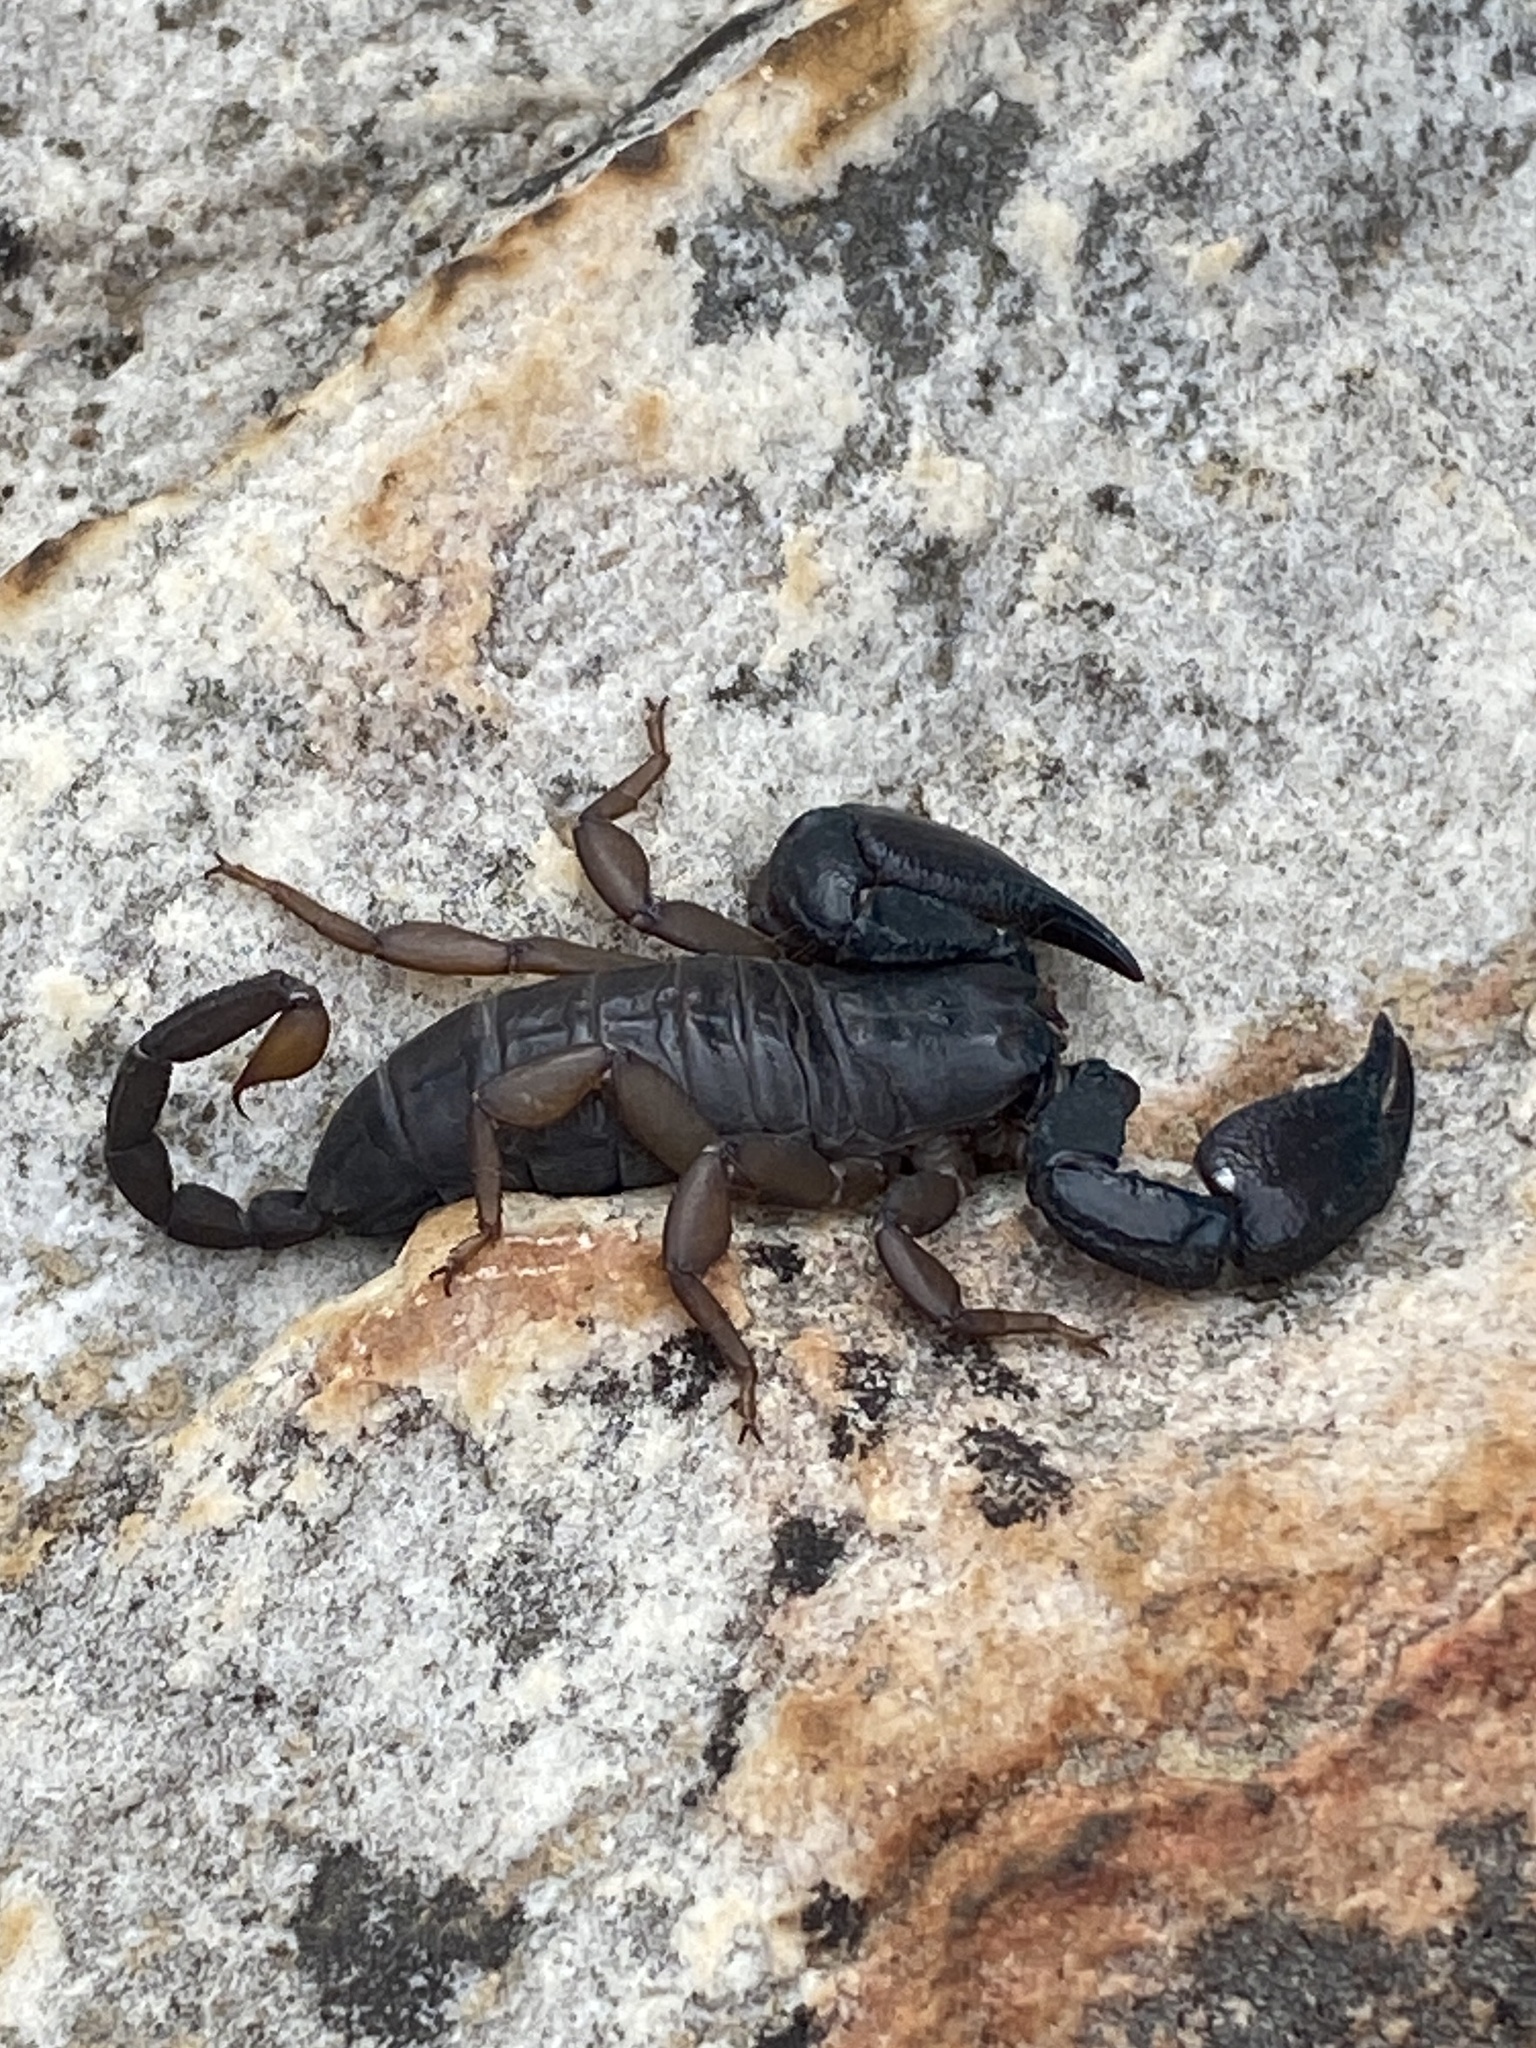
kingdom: Animalia
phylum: Arthropoda
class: Arachnida
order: Scorpiones
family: Hormuridae
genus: Opisthacanthus
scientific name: Opisthacanthus diremptus
